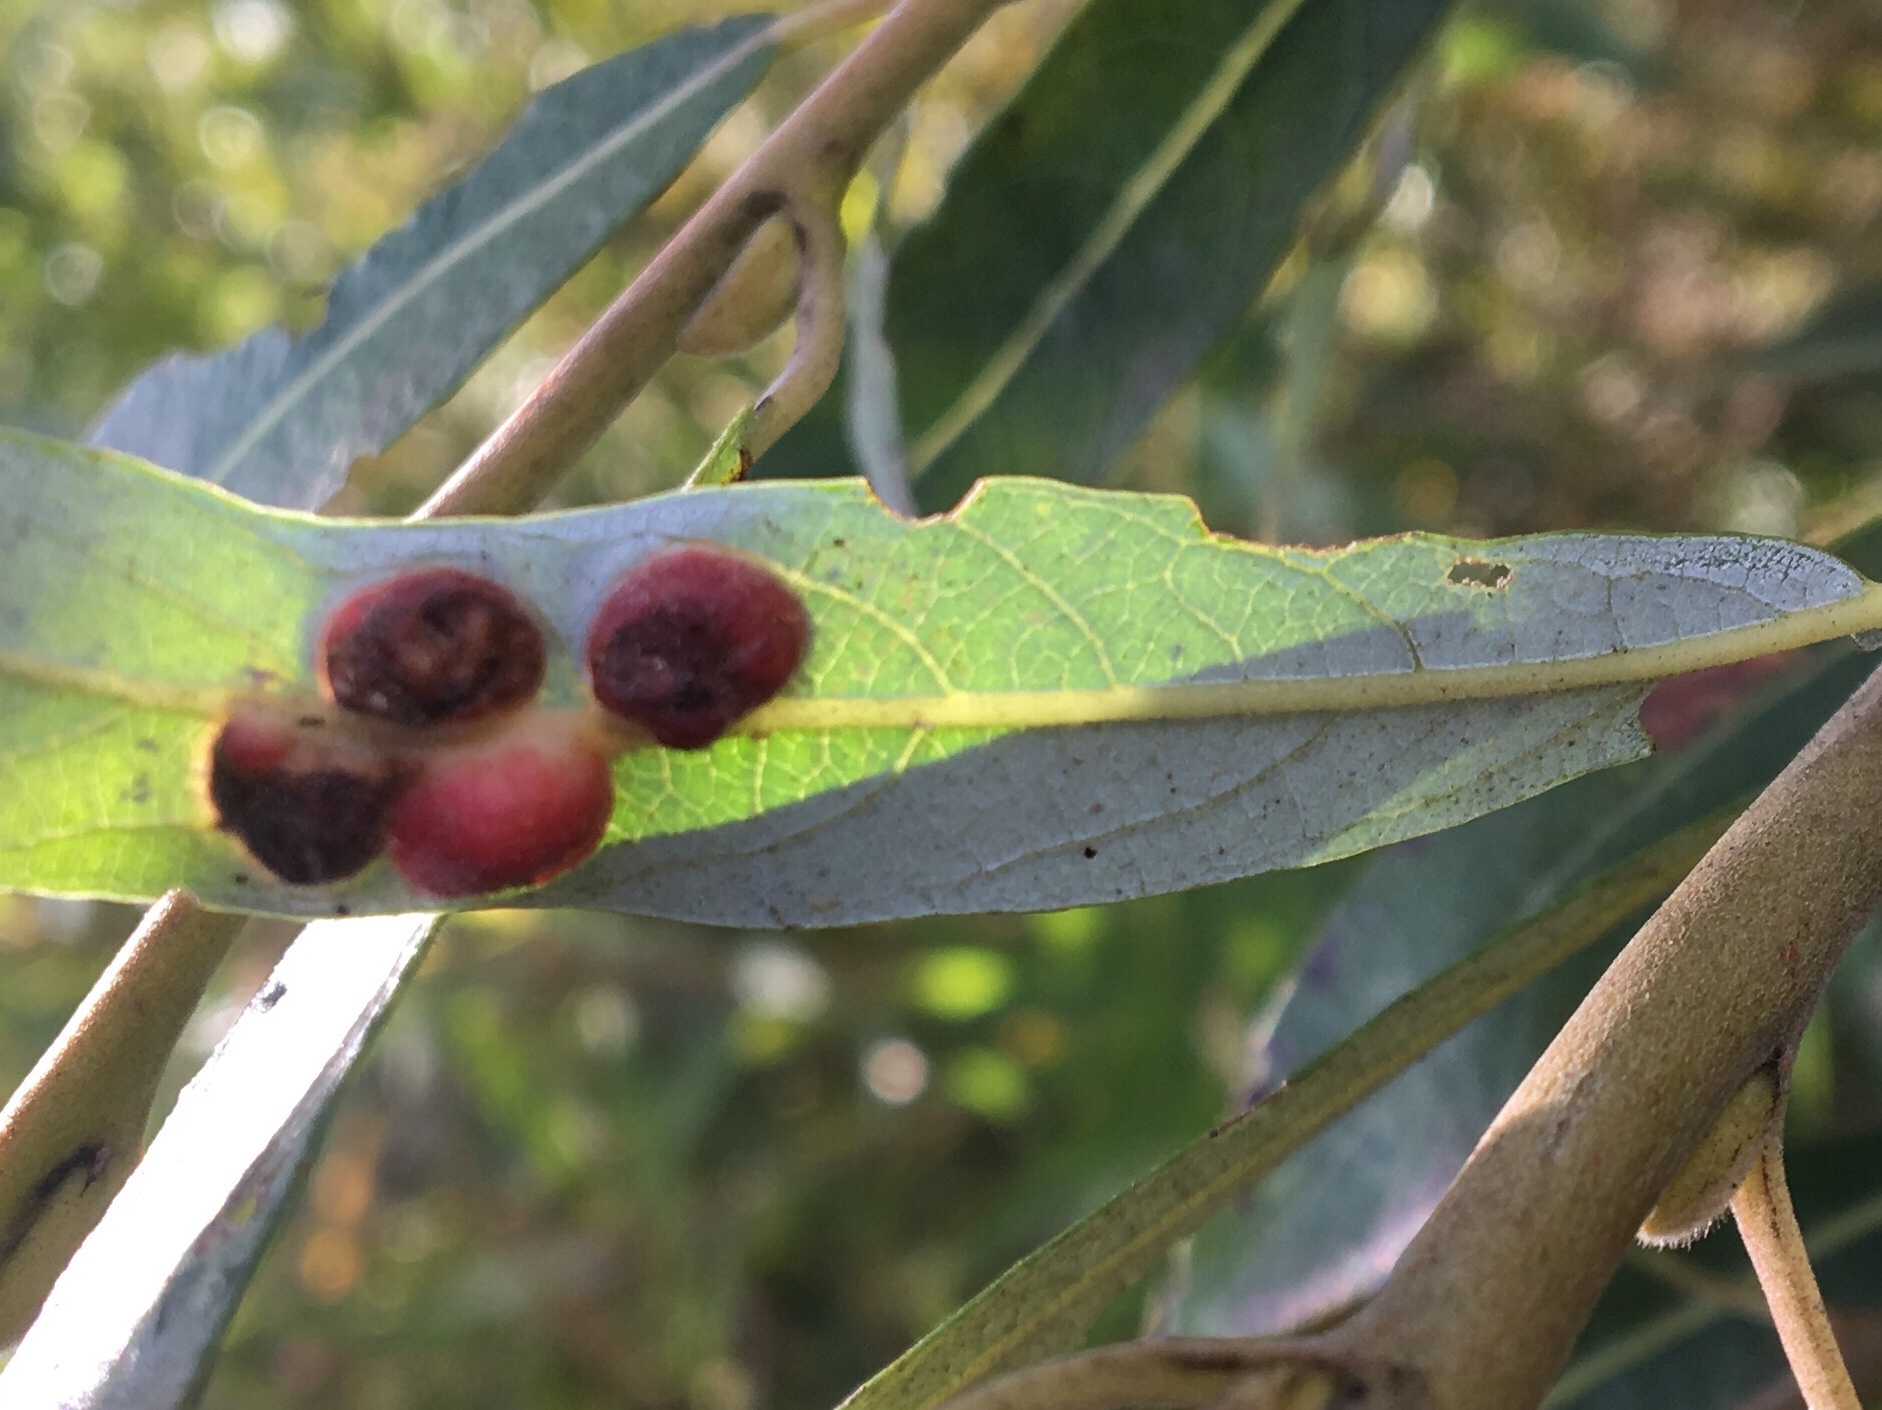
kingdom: Animalia
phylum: Arthropoda
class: Insecta
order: Hymenoptera
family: Tenthredinidae
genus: Euura
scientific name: Euura
